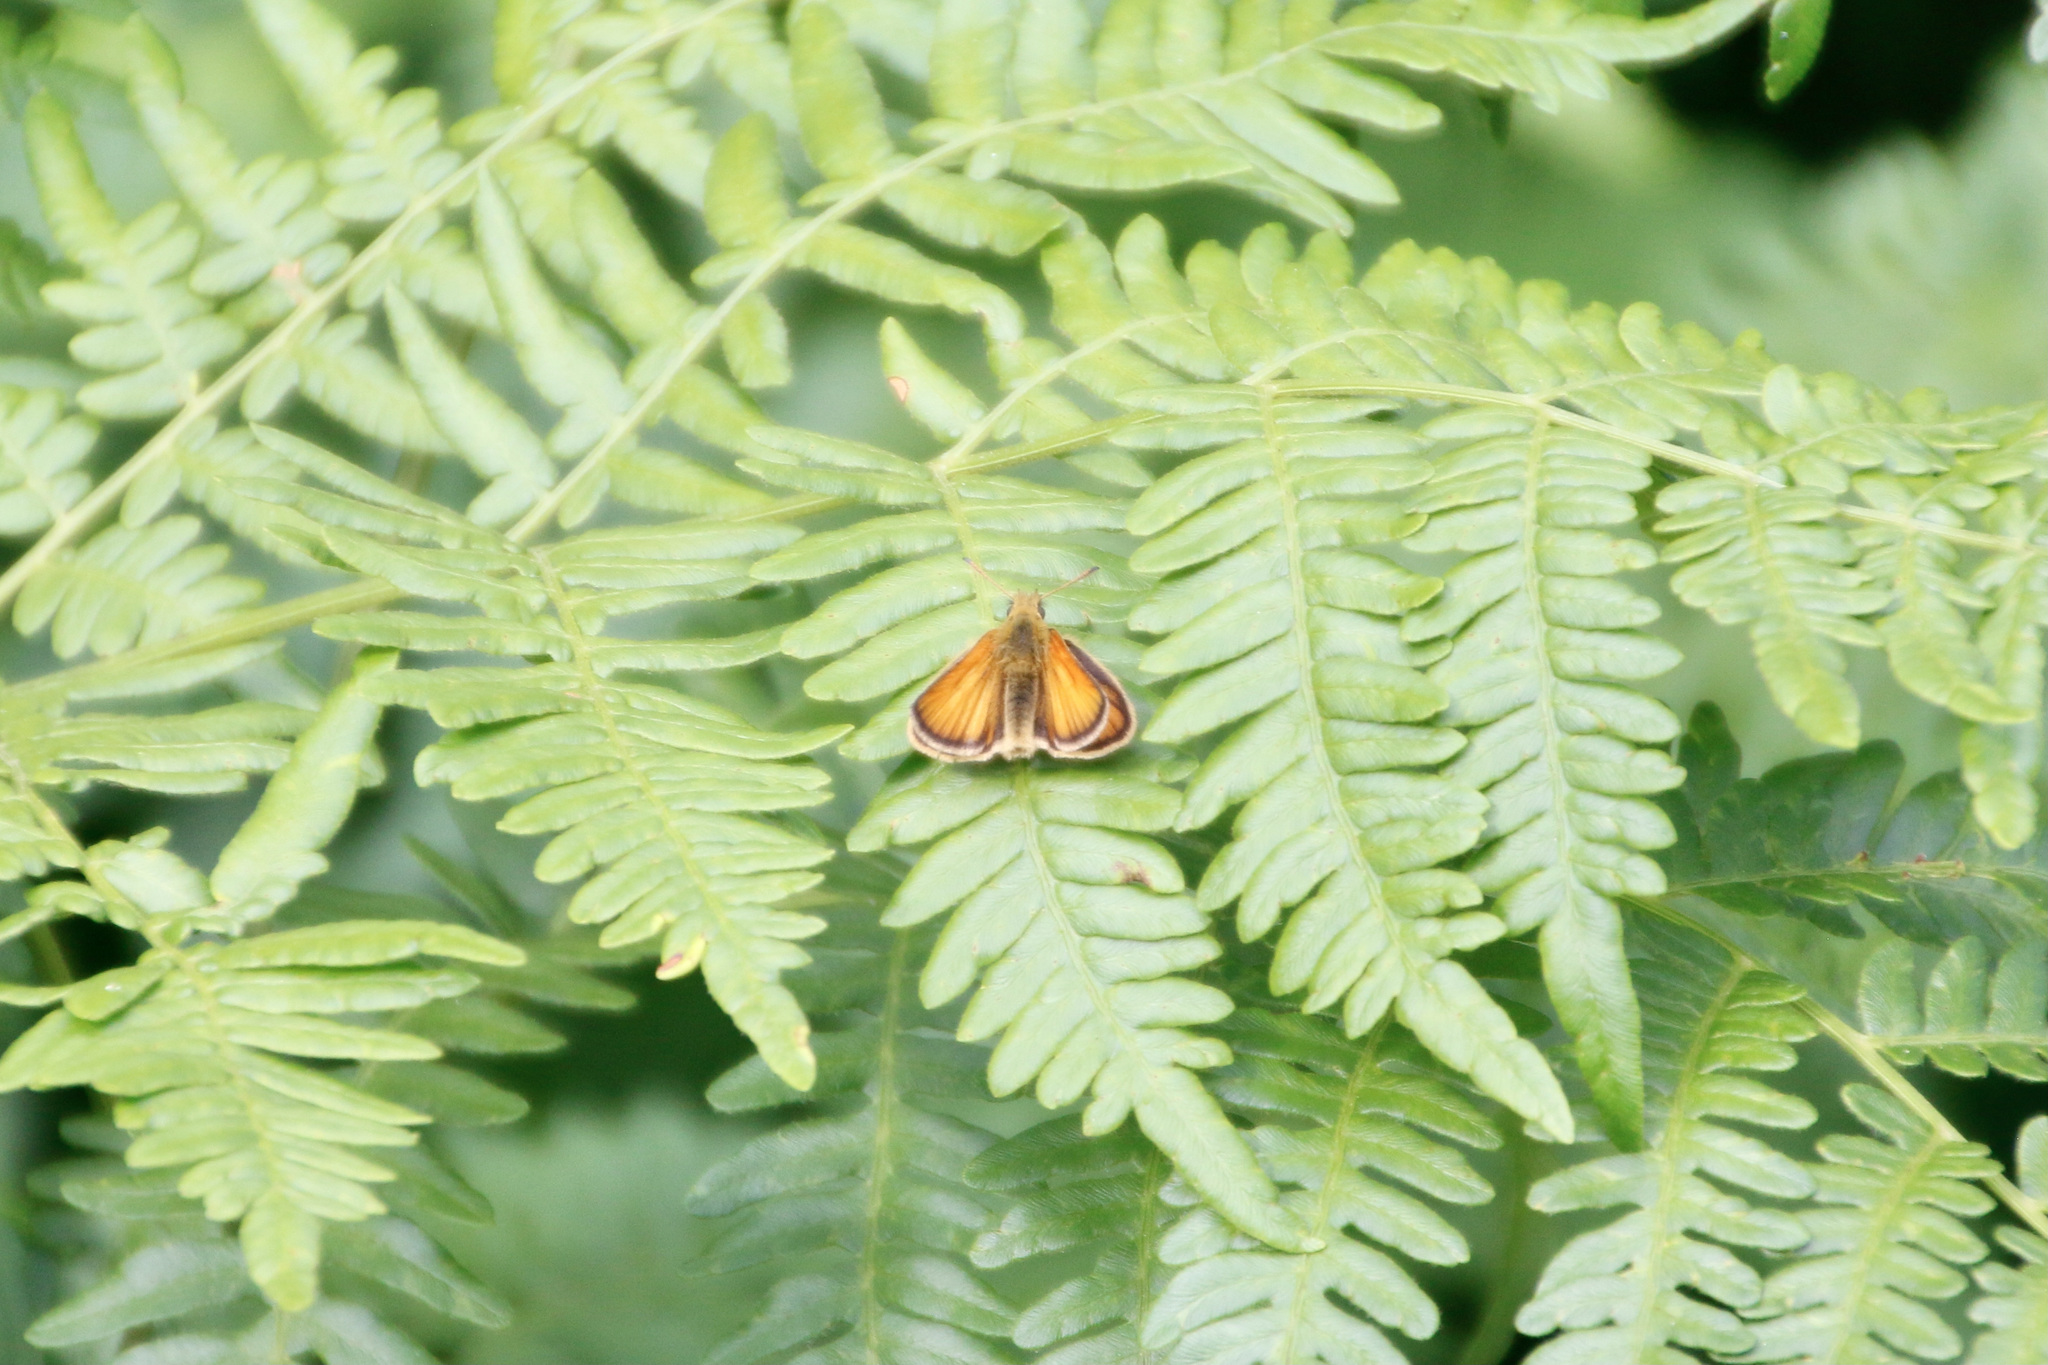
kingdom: Animalia
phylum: Arthropoda
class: Insecta
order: Lepidoptera
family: Hesperiidae
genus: Thymelicus
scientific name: Thymelicus lineola
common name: Essex skipper
